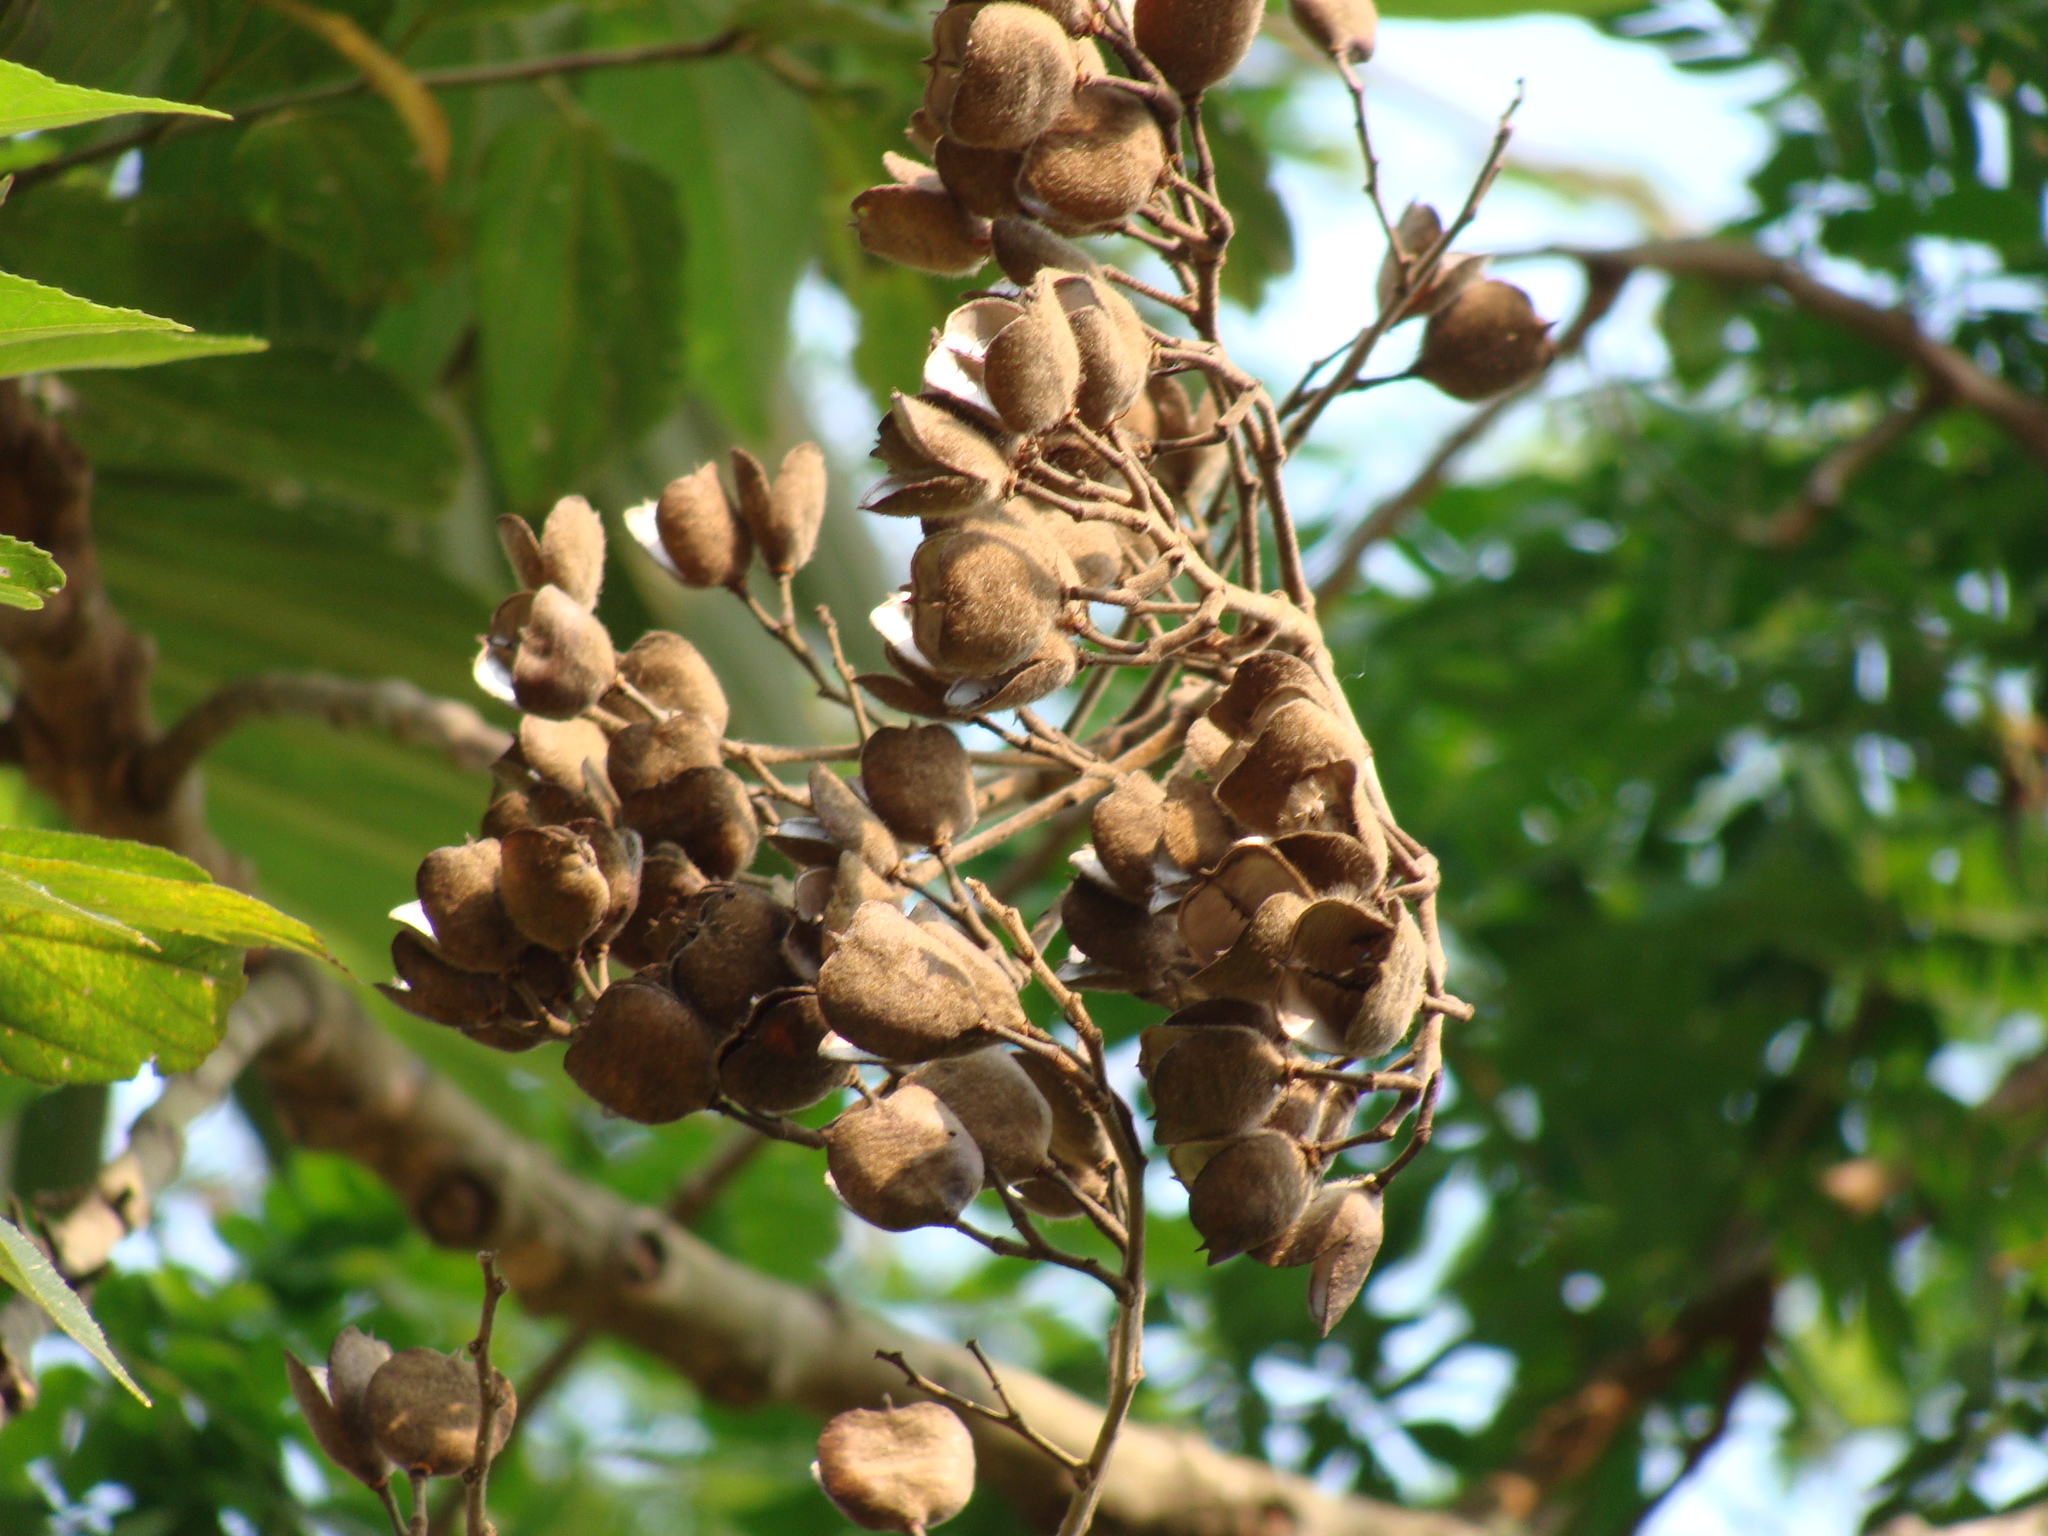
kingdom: Plantae
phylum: Tracheophyta
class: Magnoliopsida
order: Malvales
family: Malvaceae
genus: Trichospermum
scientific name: Trichospermum mexicanum
